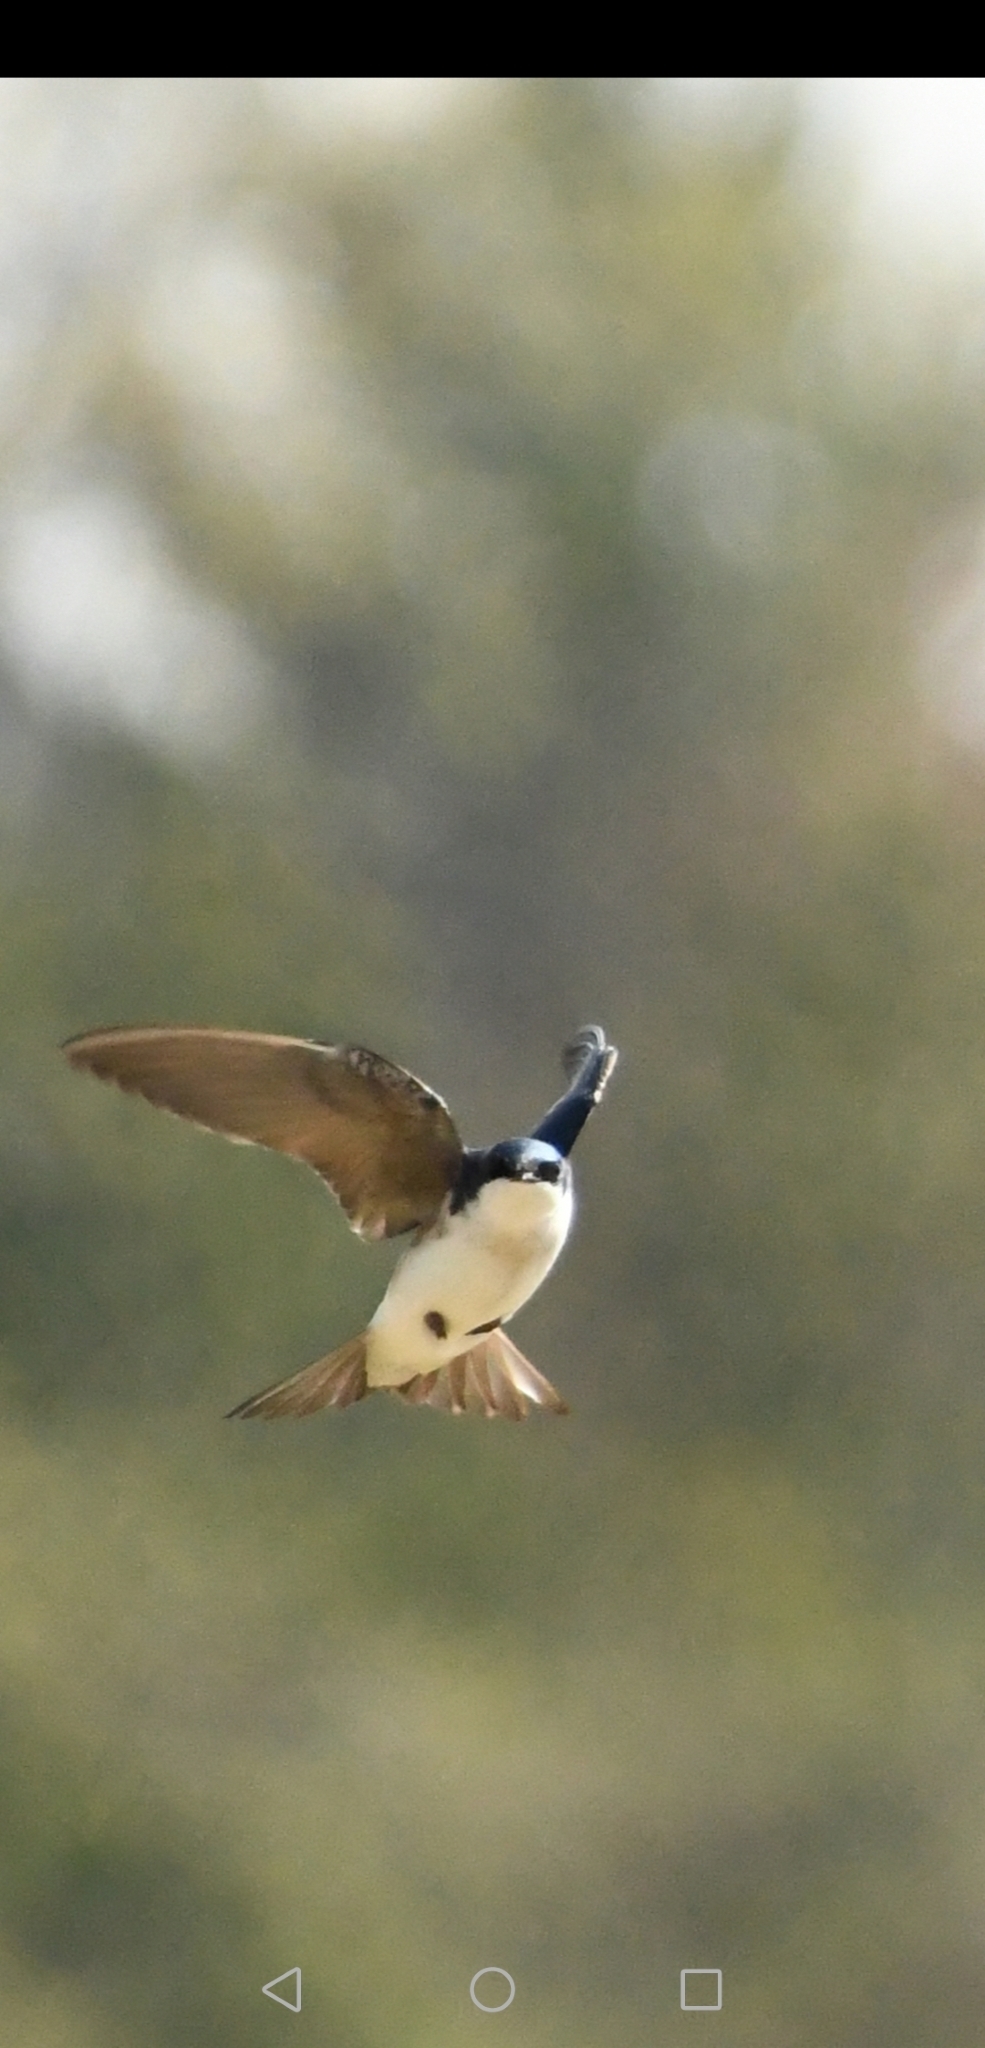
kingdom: Animalia
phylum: Chordata
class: Aves
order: Passeriformes
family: Hirundinidae
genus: Tachycineta
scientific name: Tachycineta bicolor
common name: Tree swallow
